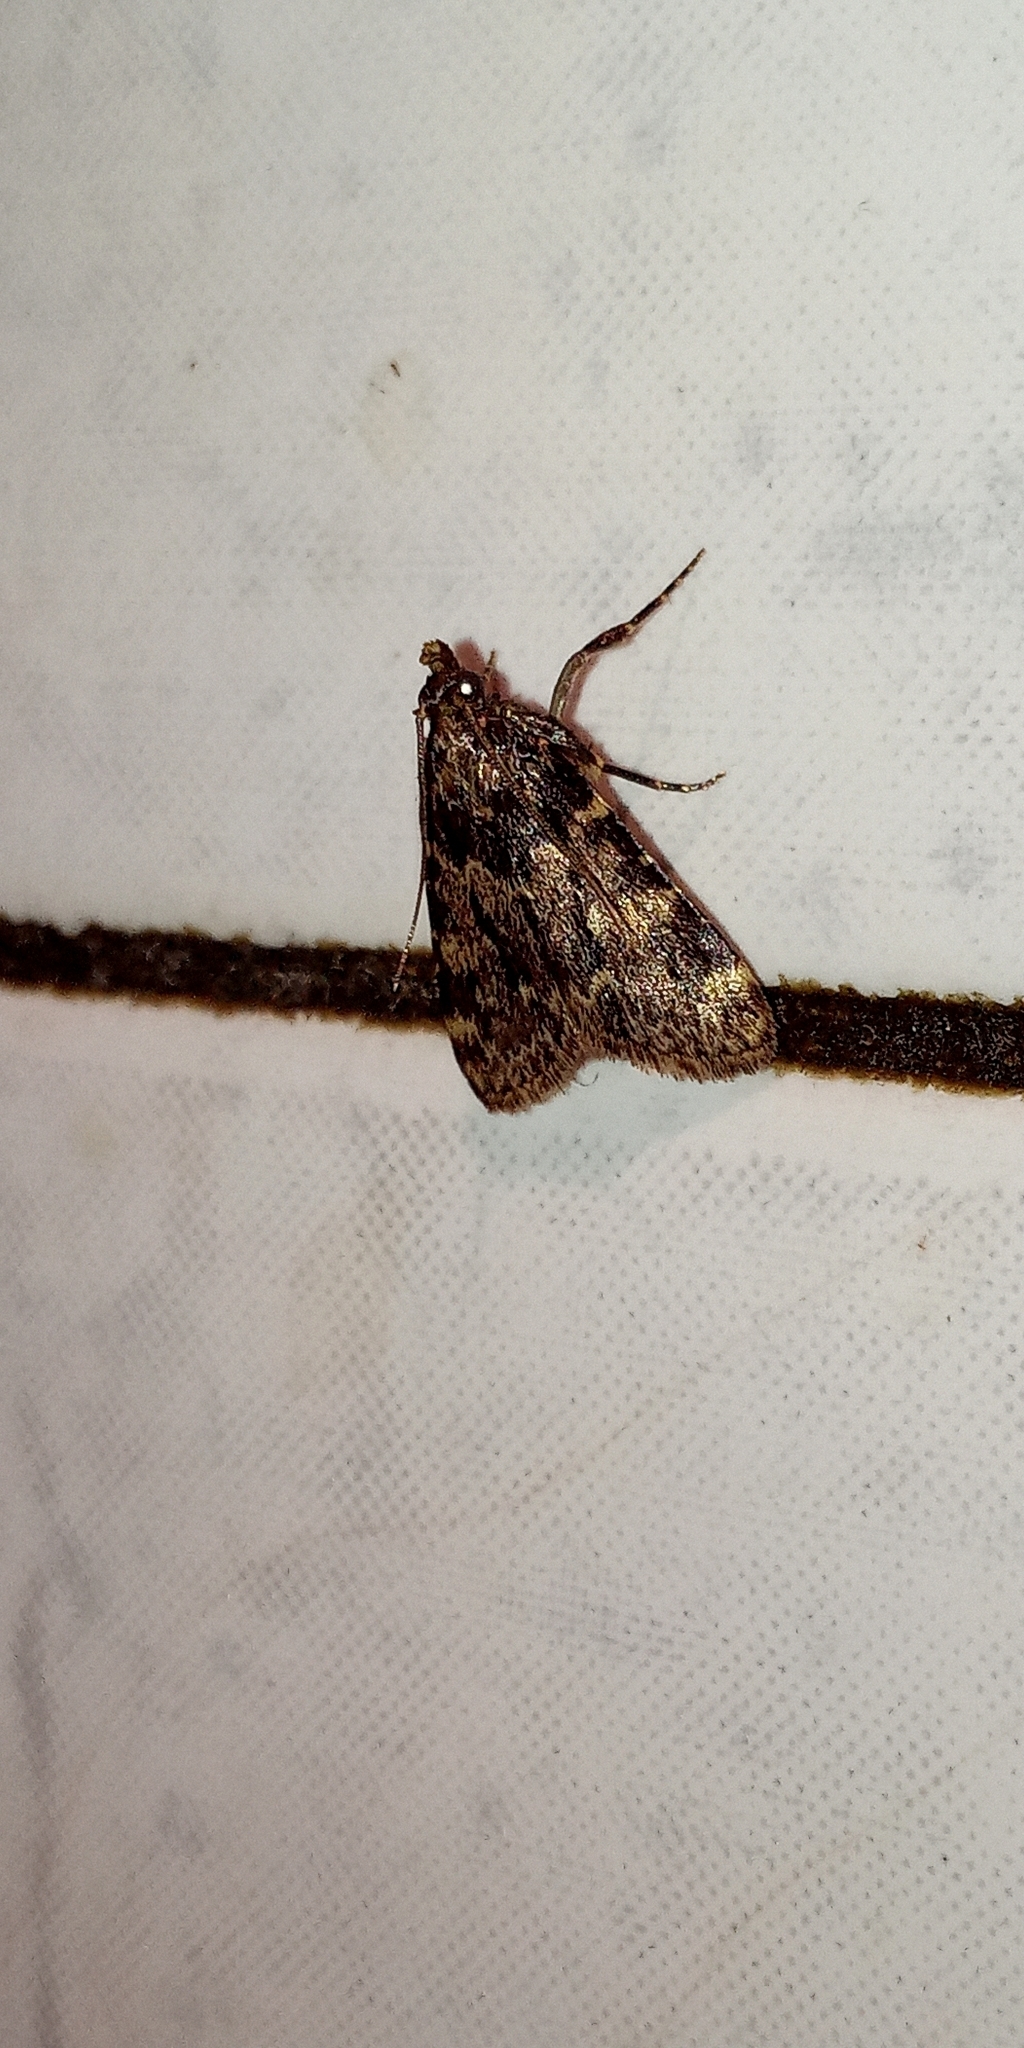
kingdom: Animalia
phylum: Arthropoda
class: Insecta
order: Lepidoptera
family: Pyralidae
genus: Aglossa
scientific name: Aglossa caprealis
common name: Small tabby
